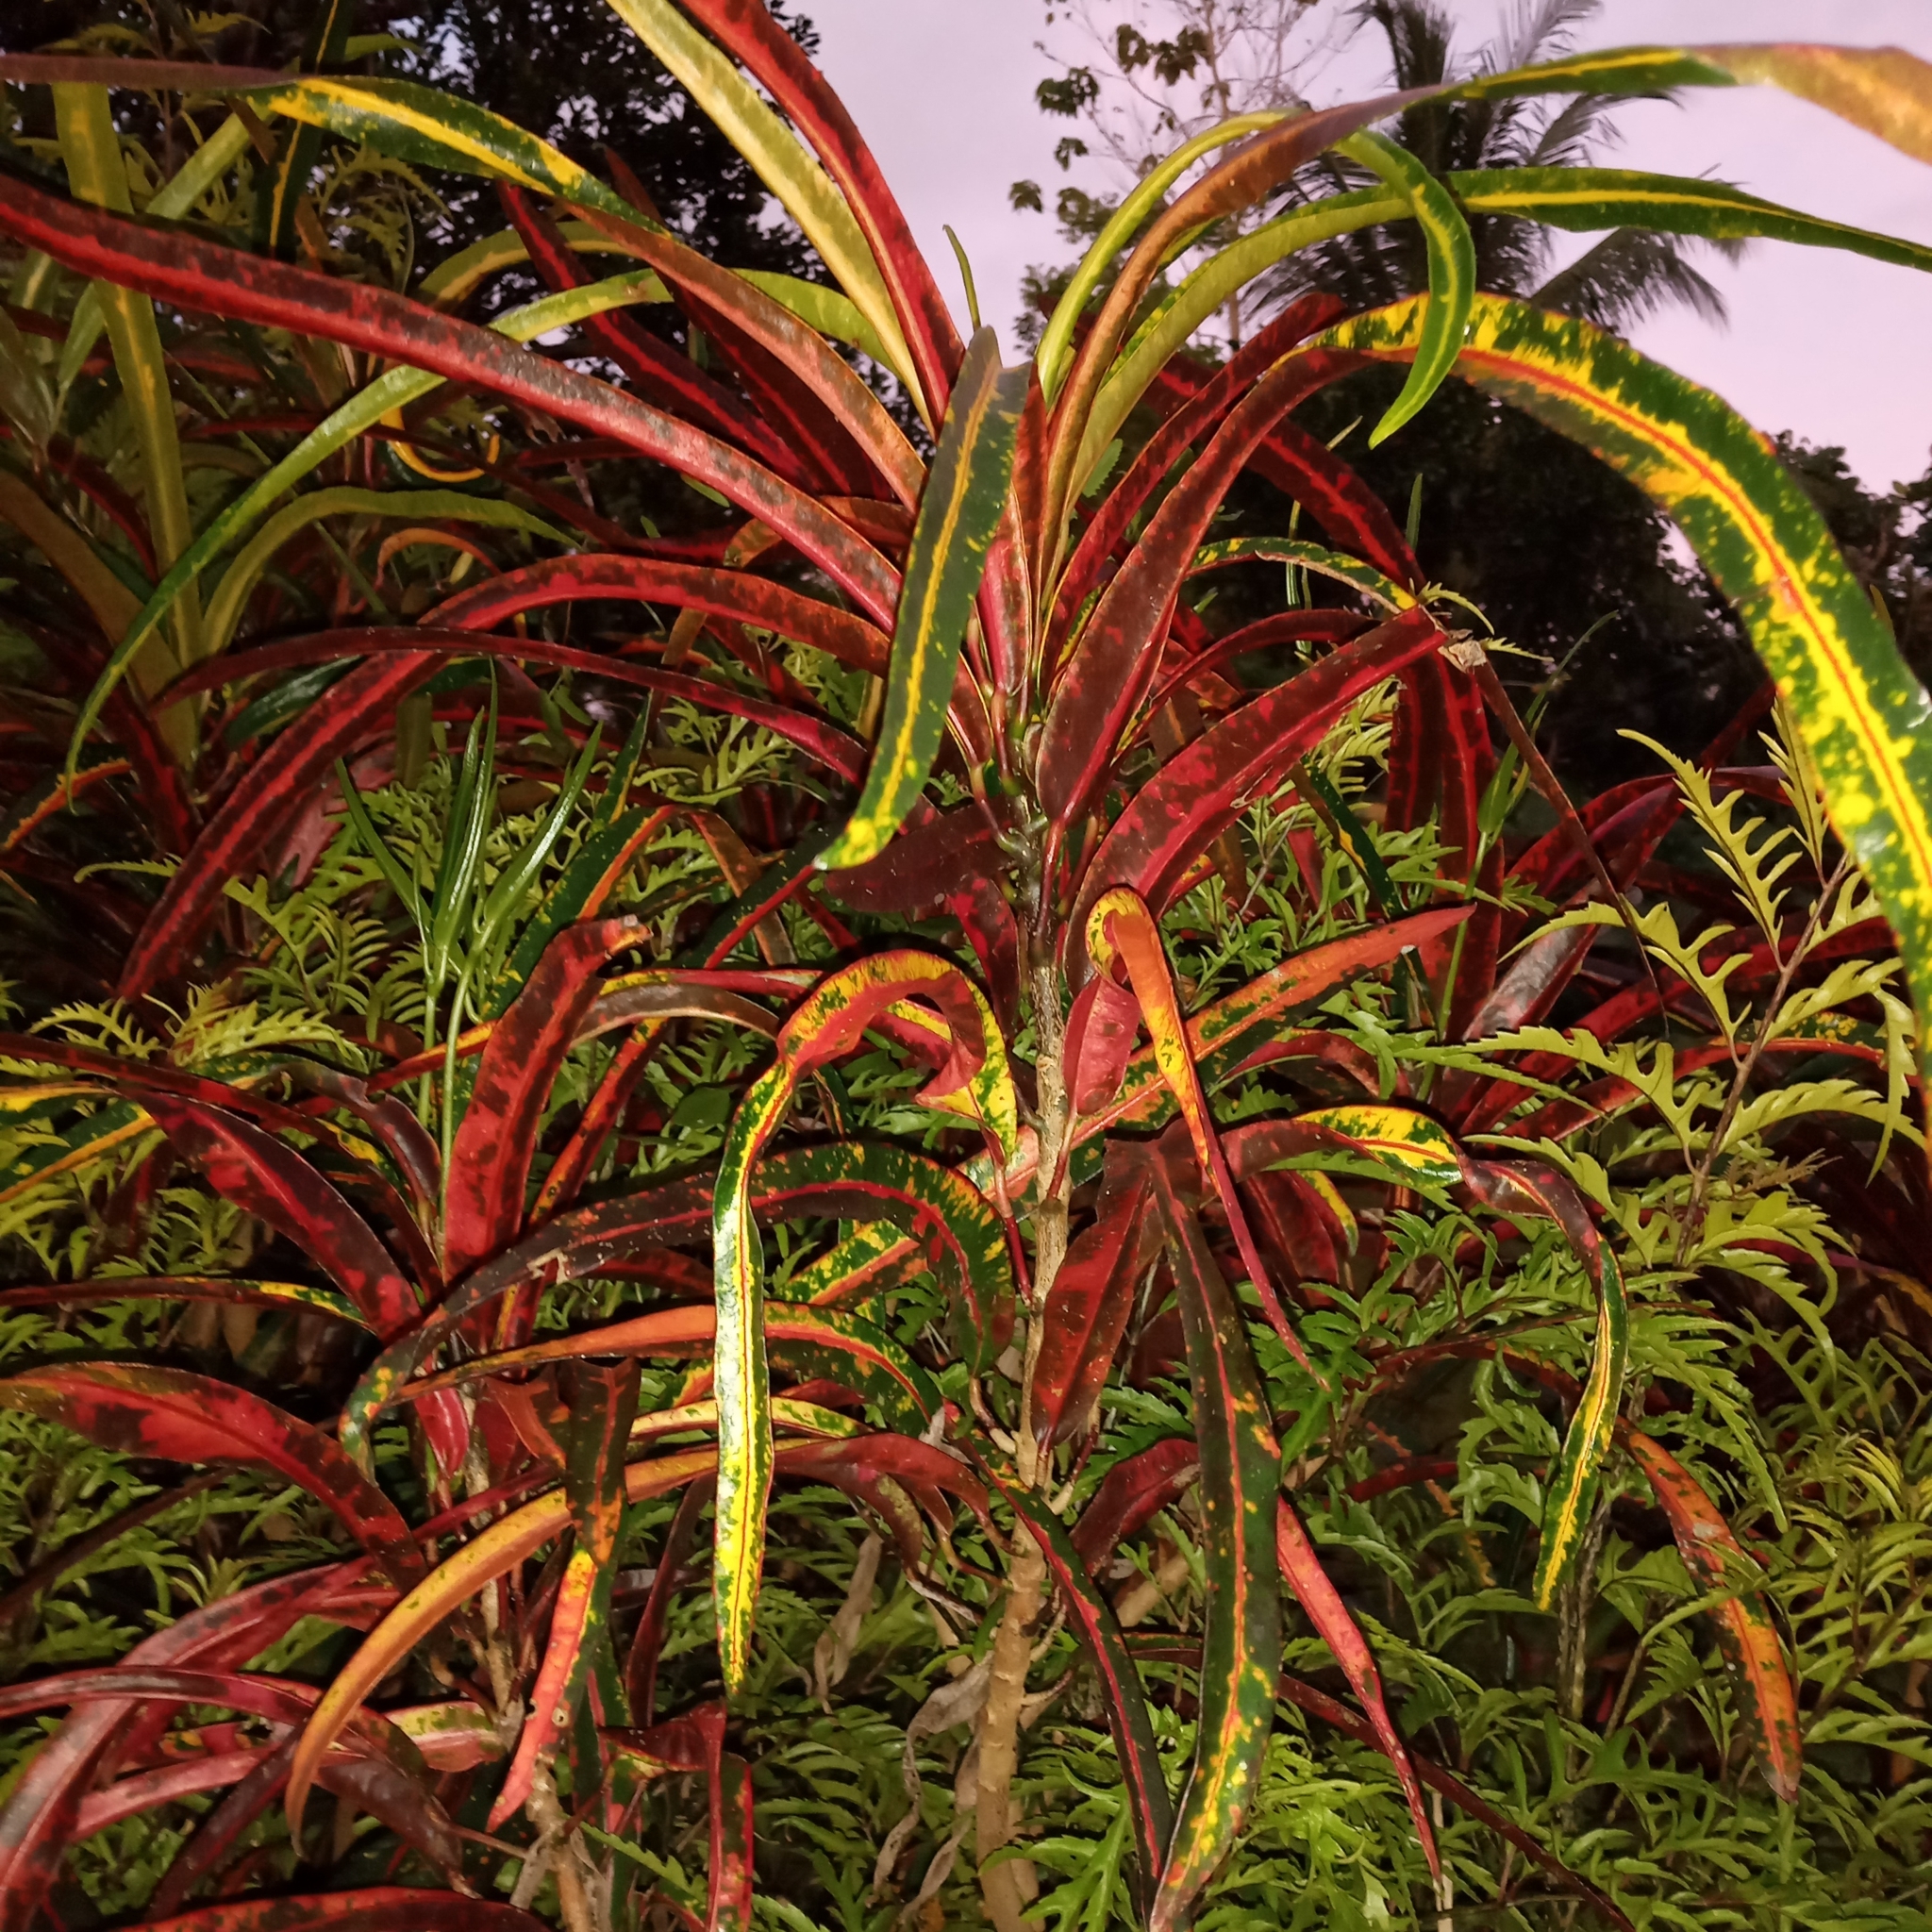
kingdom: Plantae
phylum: Tracheophyta
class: Magnoliopsida
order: Malpighiales
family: Euphorbiaceae
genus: Codiaeum
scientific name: Codiaeum variegatum
